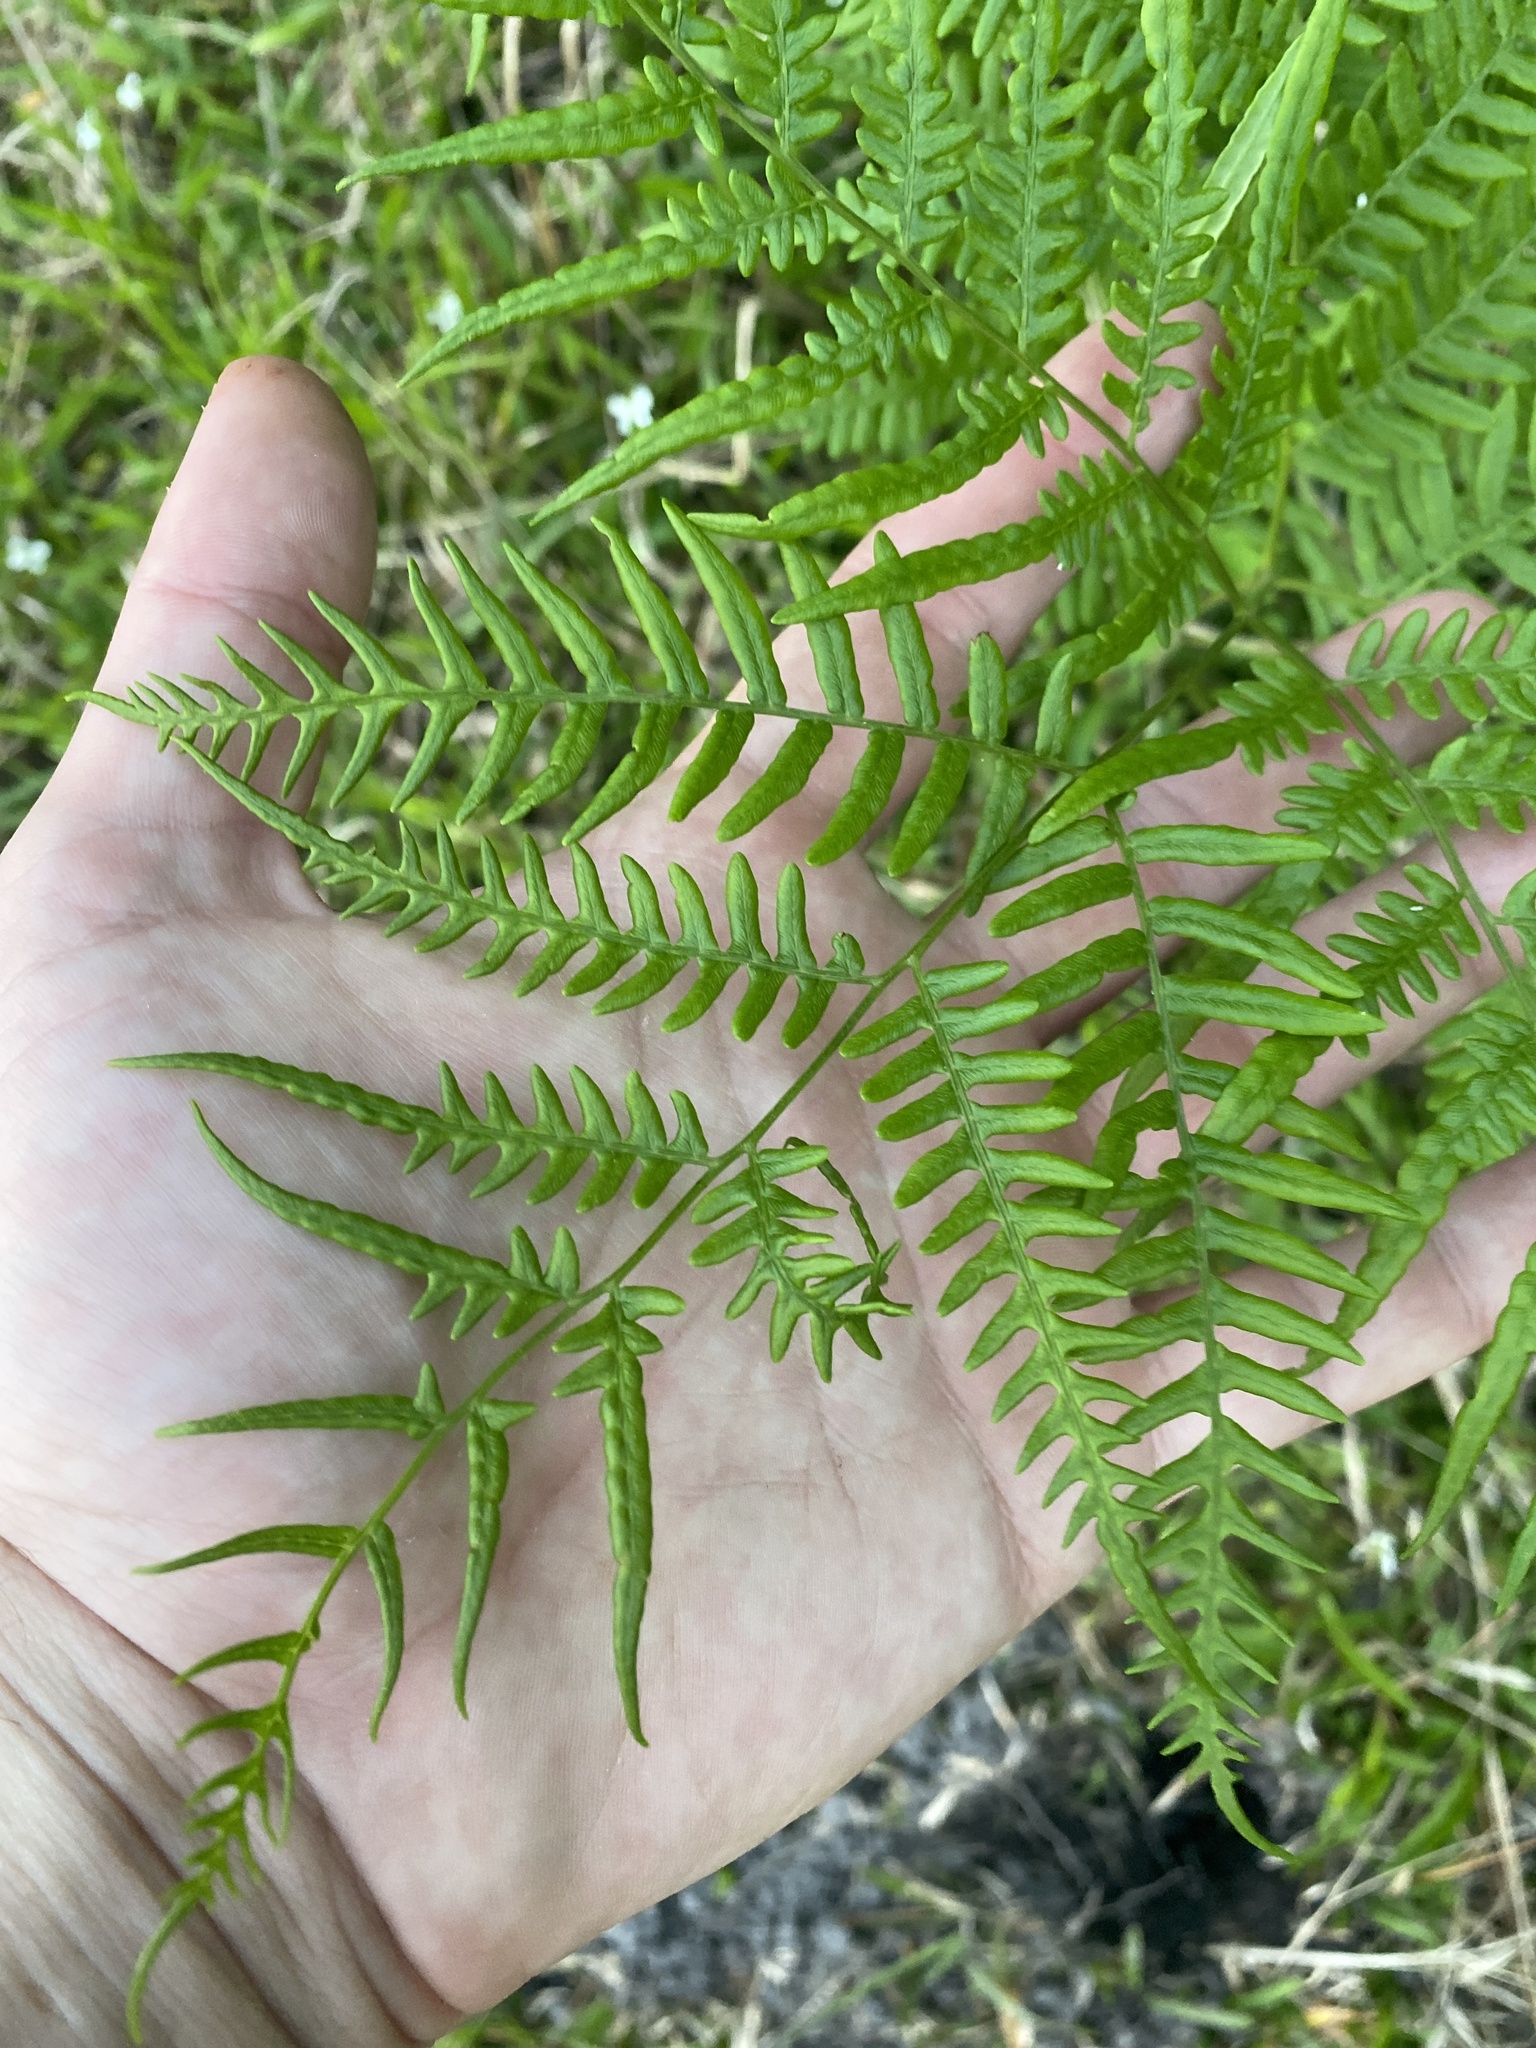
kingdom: Plantae
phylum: Tracheophyta
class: Polypodiopsida
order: Polypodiales
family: Dennstaedtiaceae
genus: Pteridium
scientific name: Pteridium
